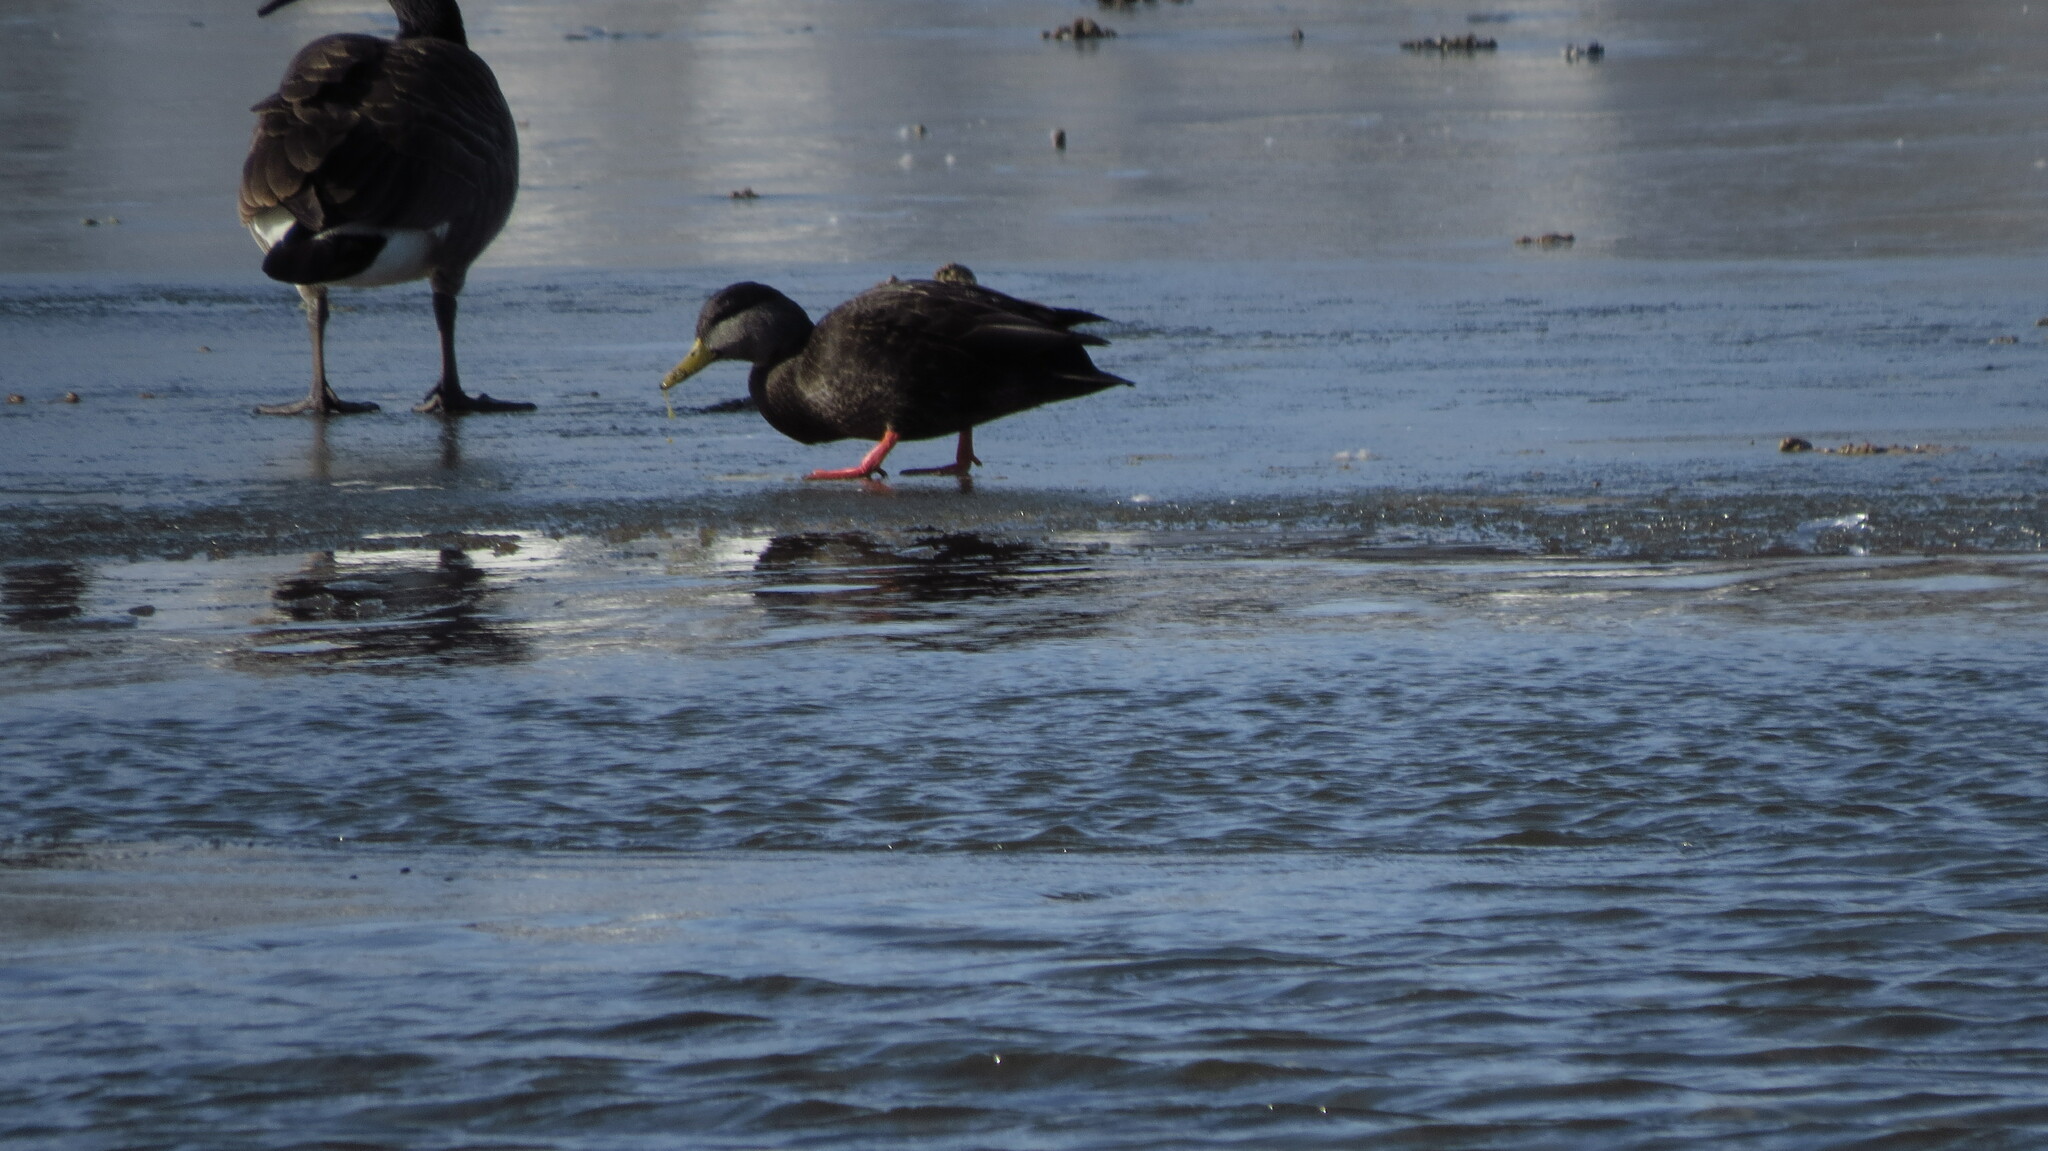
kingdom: Animalia
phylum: Chordata
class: Aves
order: Anseriformes
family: Anatidae
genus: Anas
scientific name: Anas rubripes
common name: American black duck
